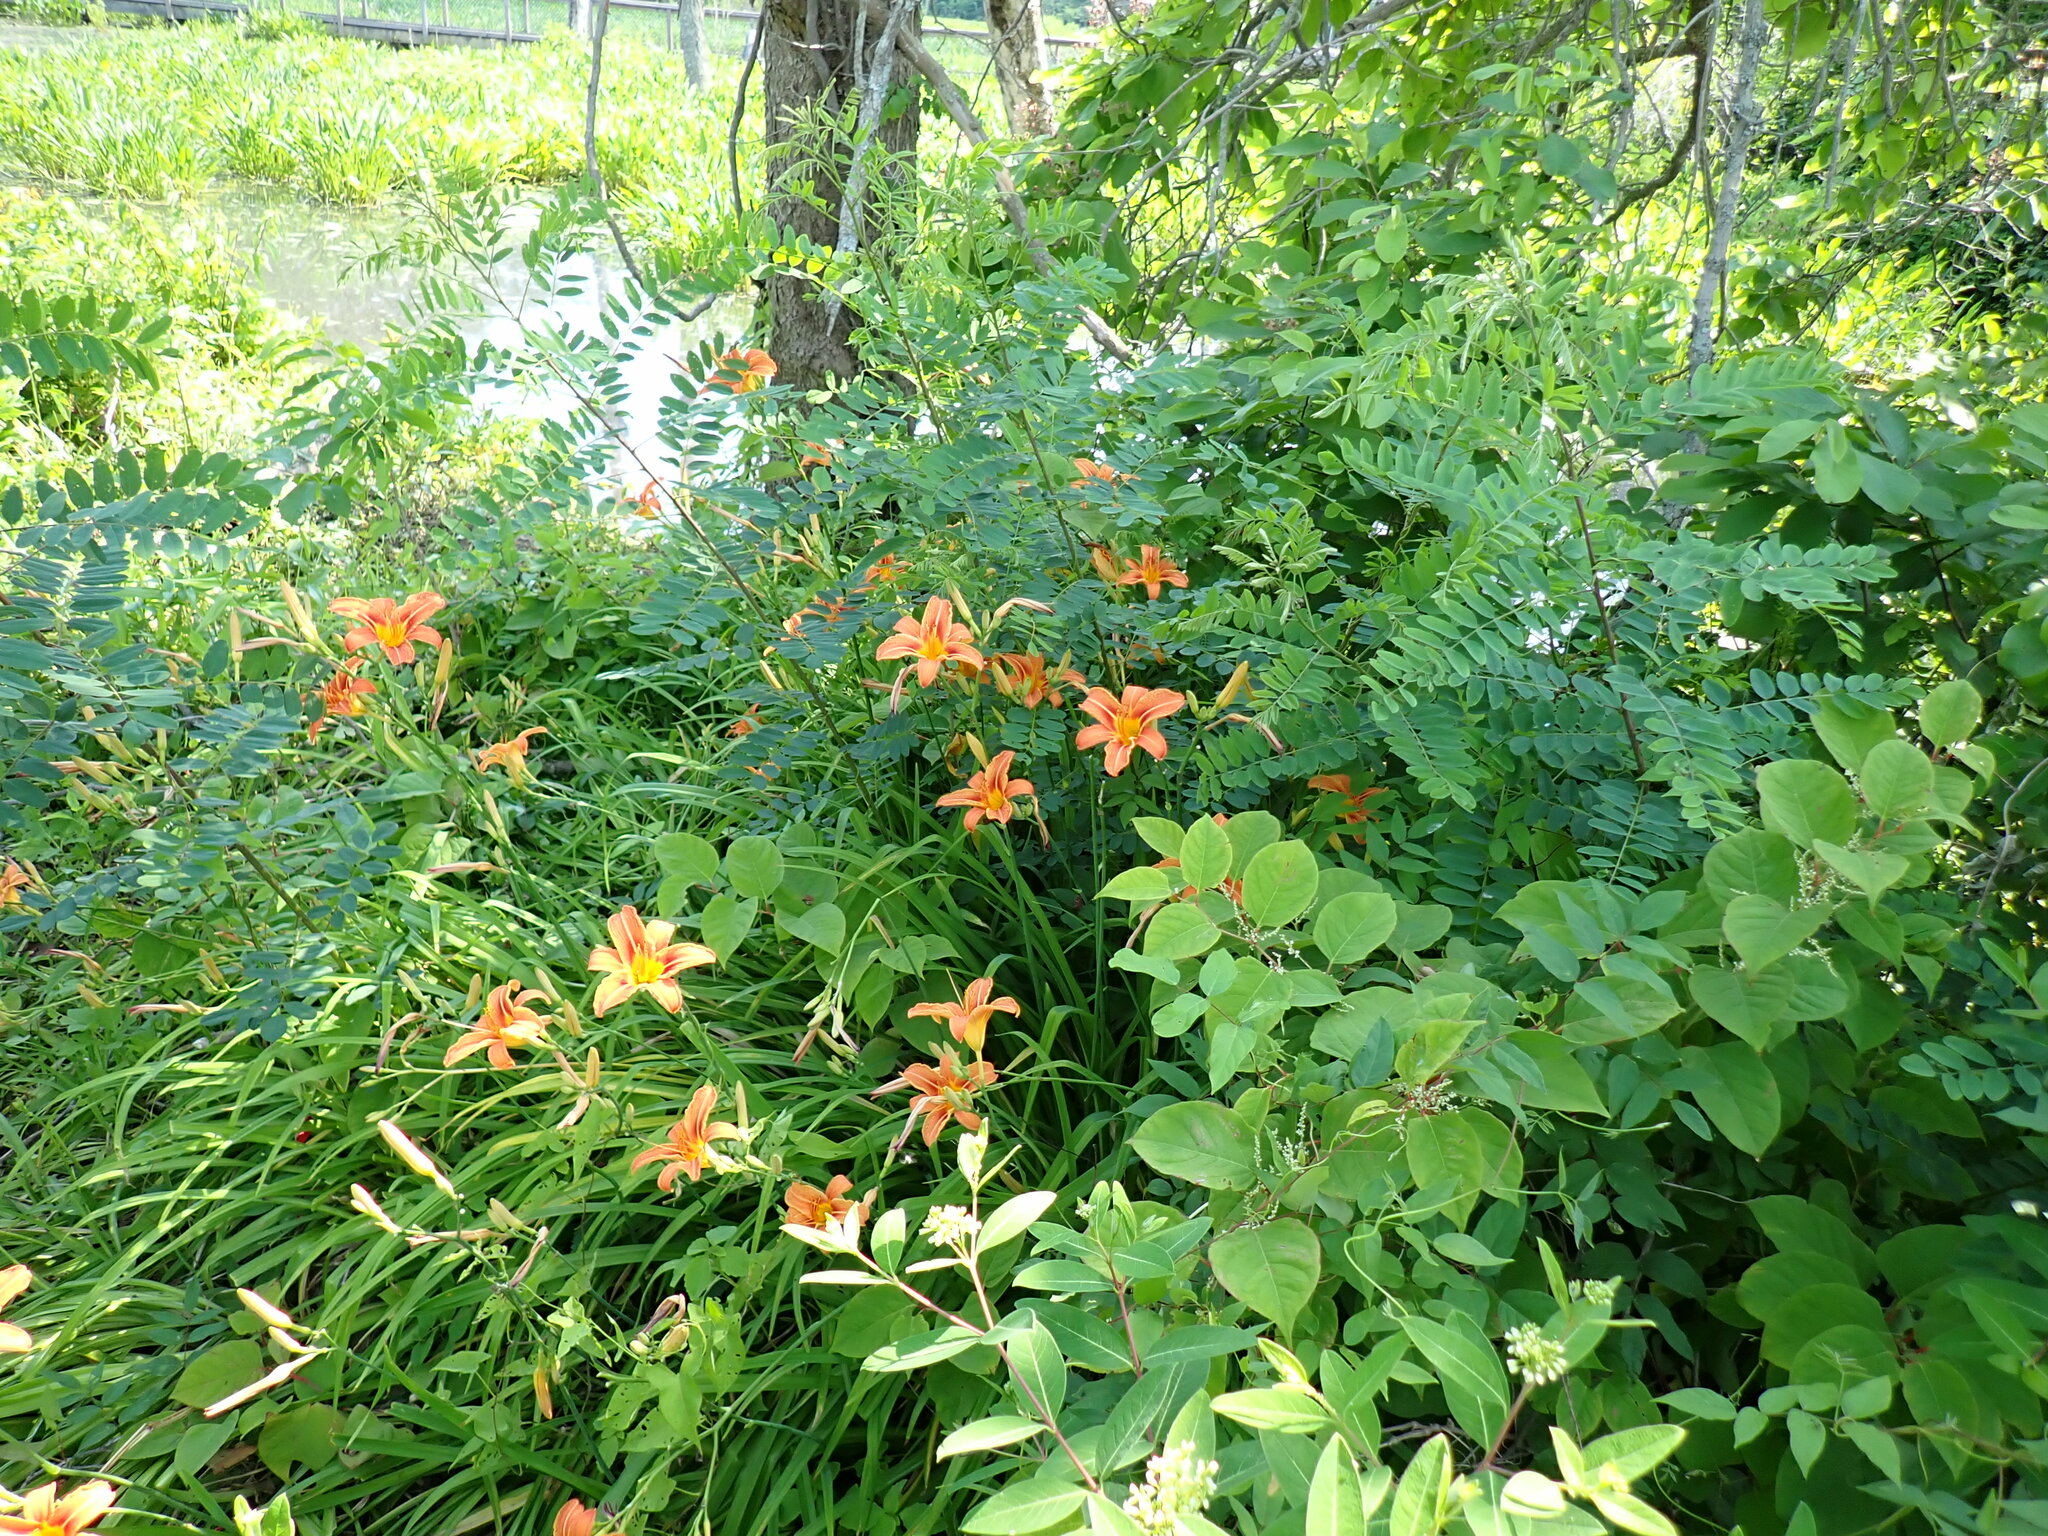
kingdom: Plantae
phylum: Tracheophyta
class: Liliopsida
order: Asparagales
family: Asphodelaceae
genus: Hemerocallis
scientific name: Hemerocallis fulva
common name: Orange day-lily
